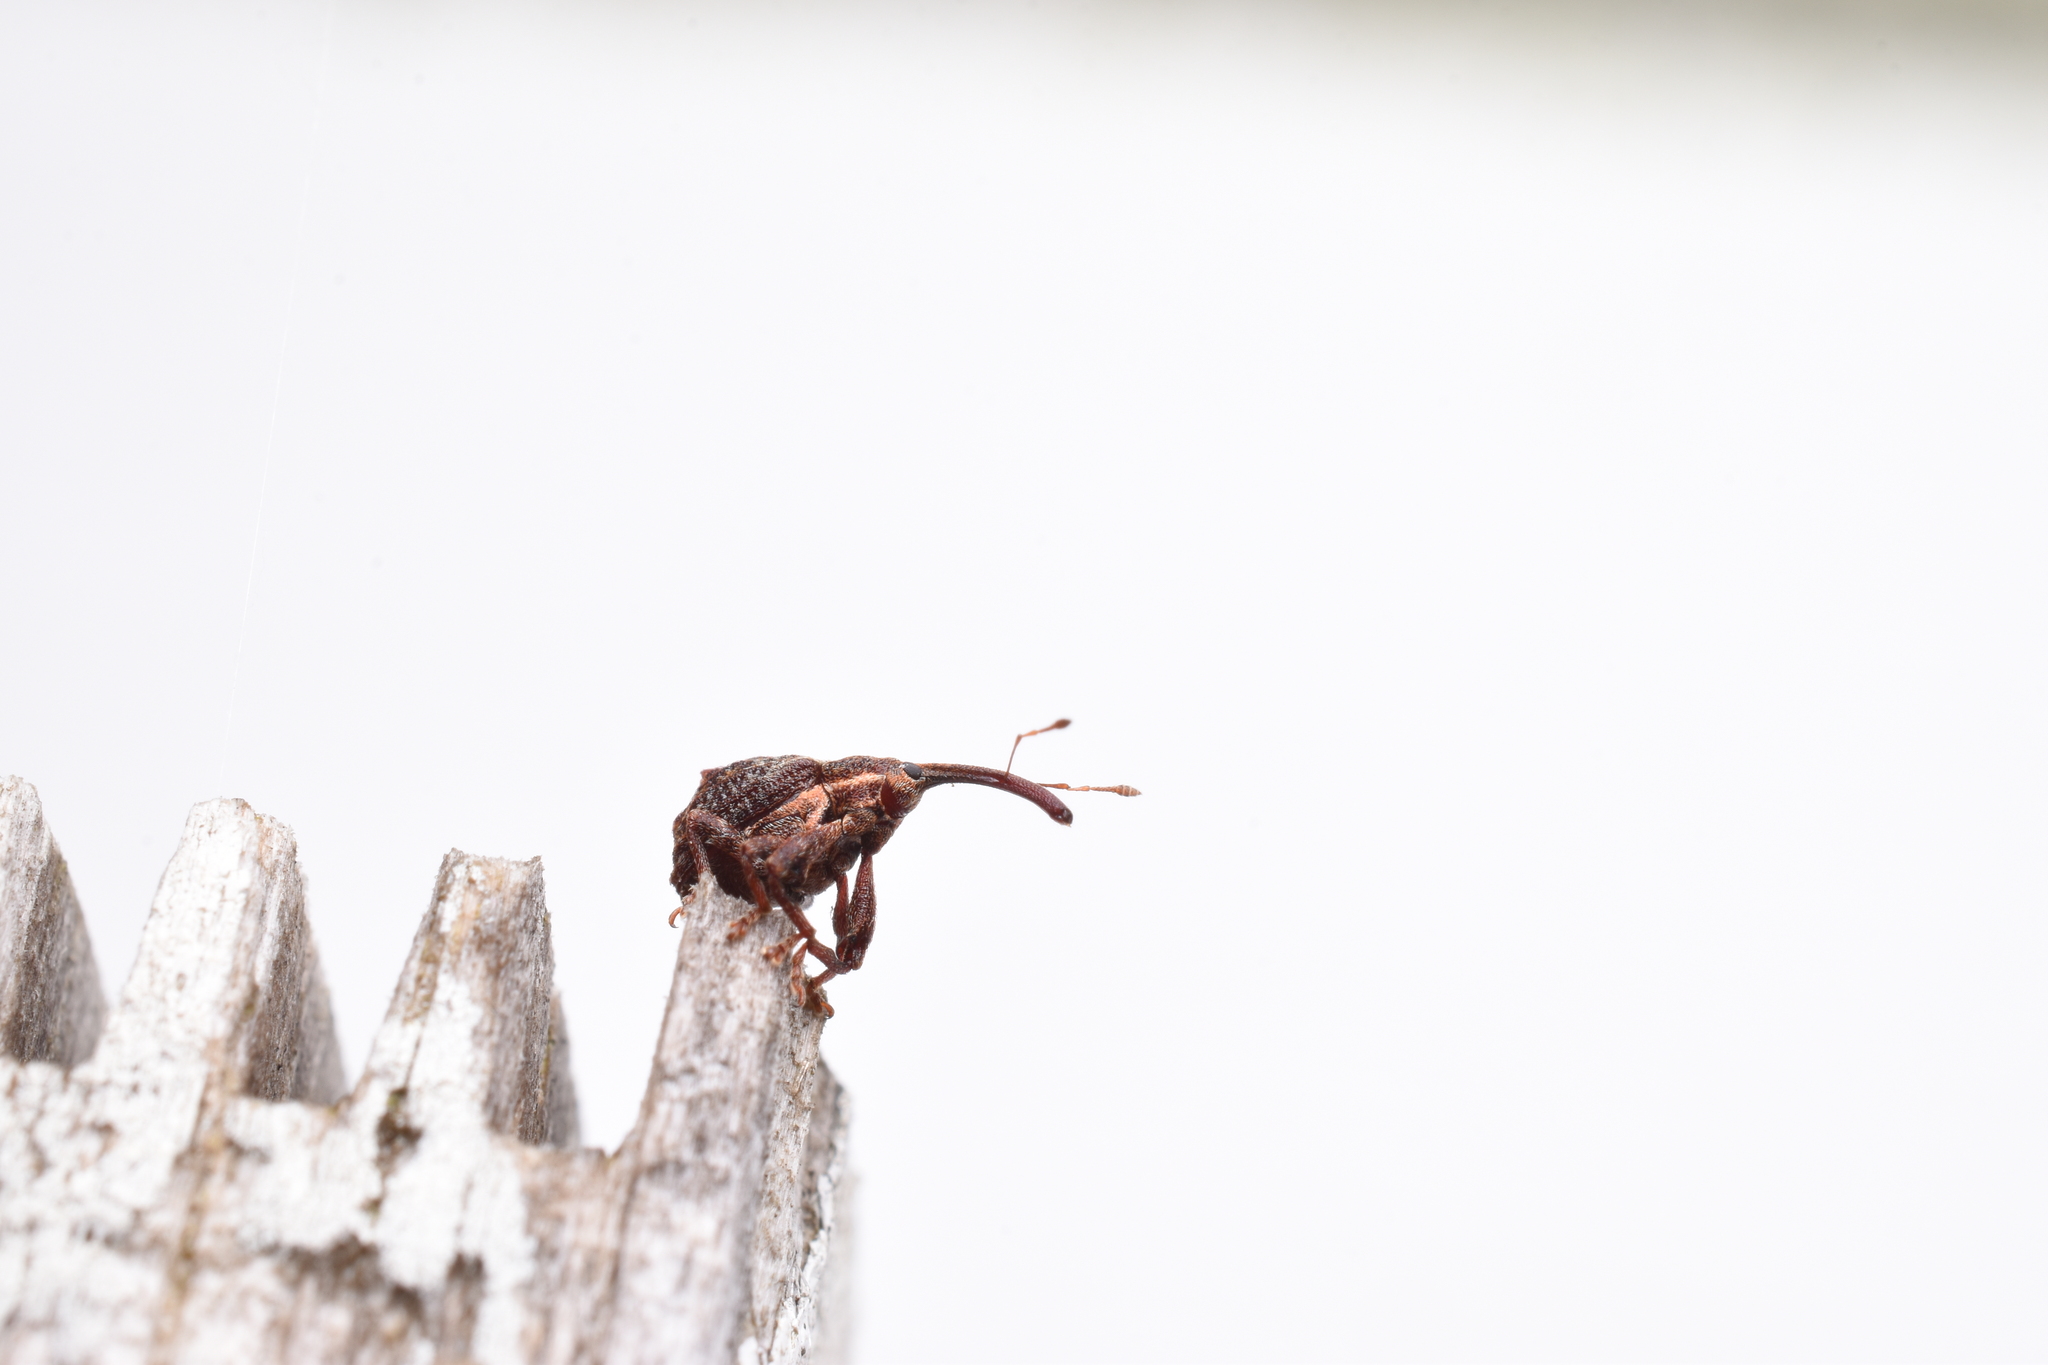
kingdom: Animalia
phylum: Arthropoda
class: Insecta
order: Coleoptera
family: Curculionidae
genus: Anthonomus
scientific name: Anthonomus quadrigibbus
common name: Apple curculio
